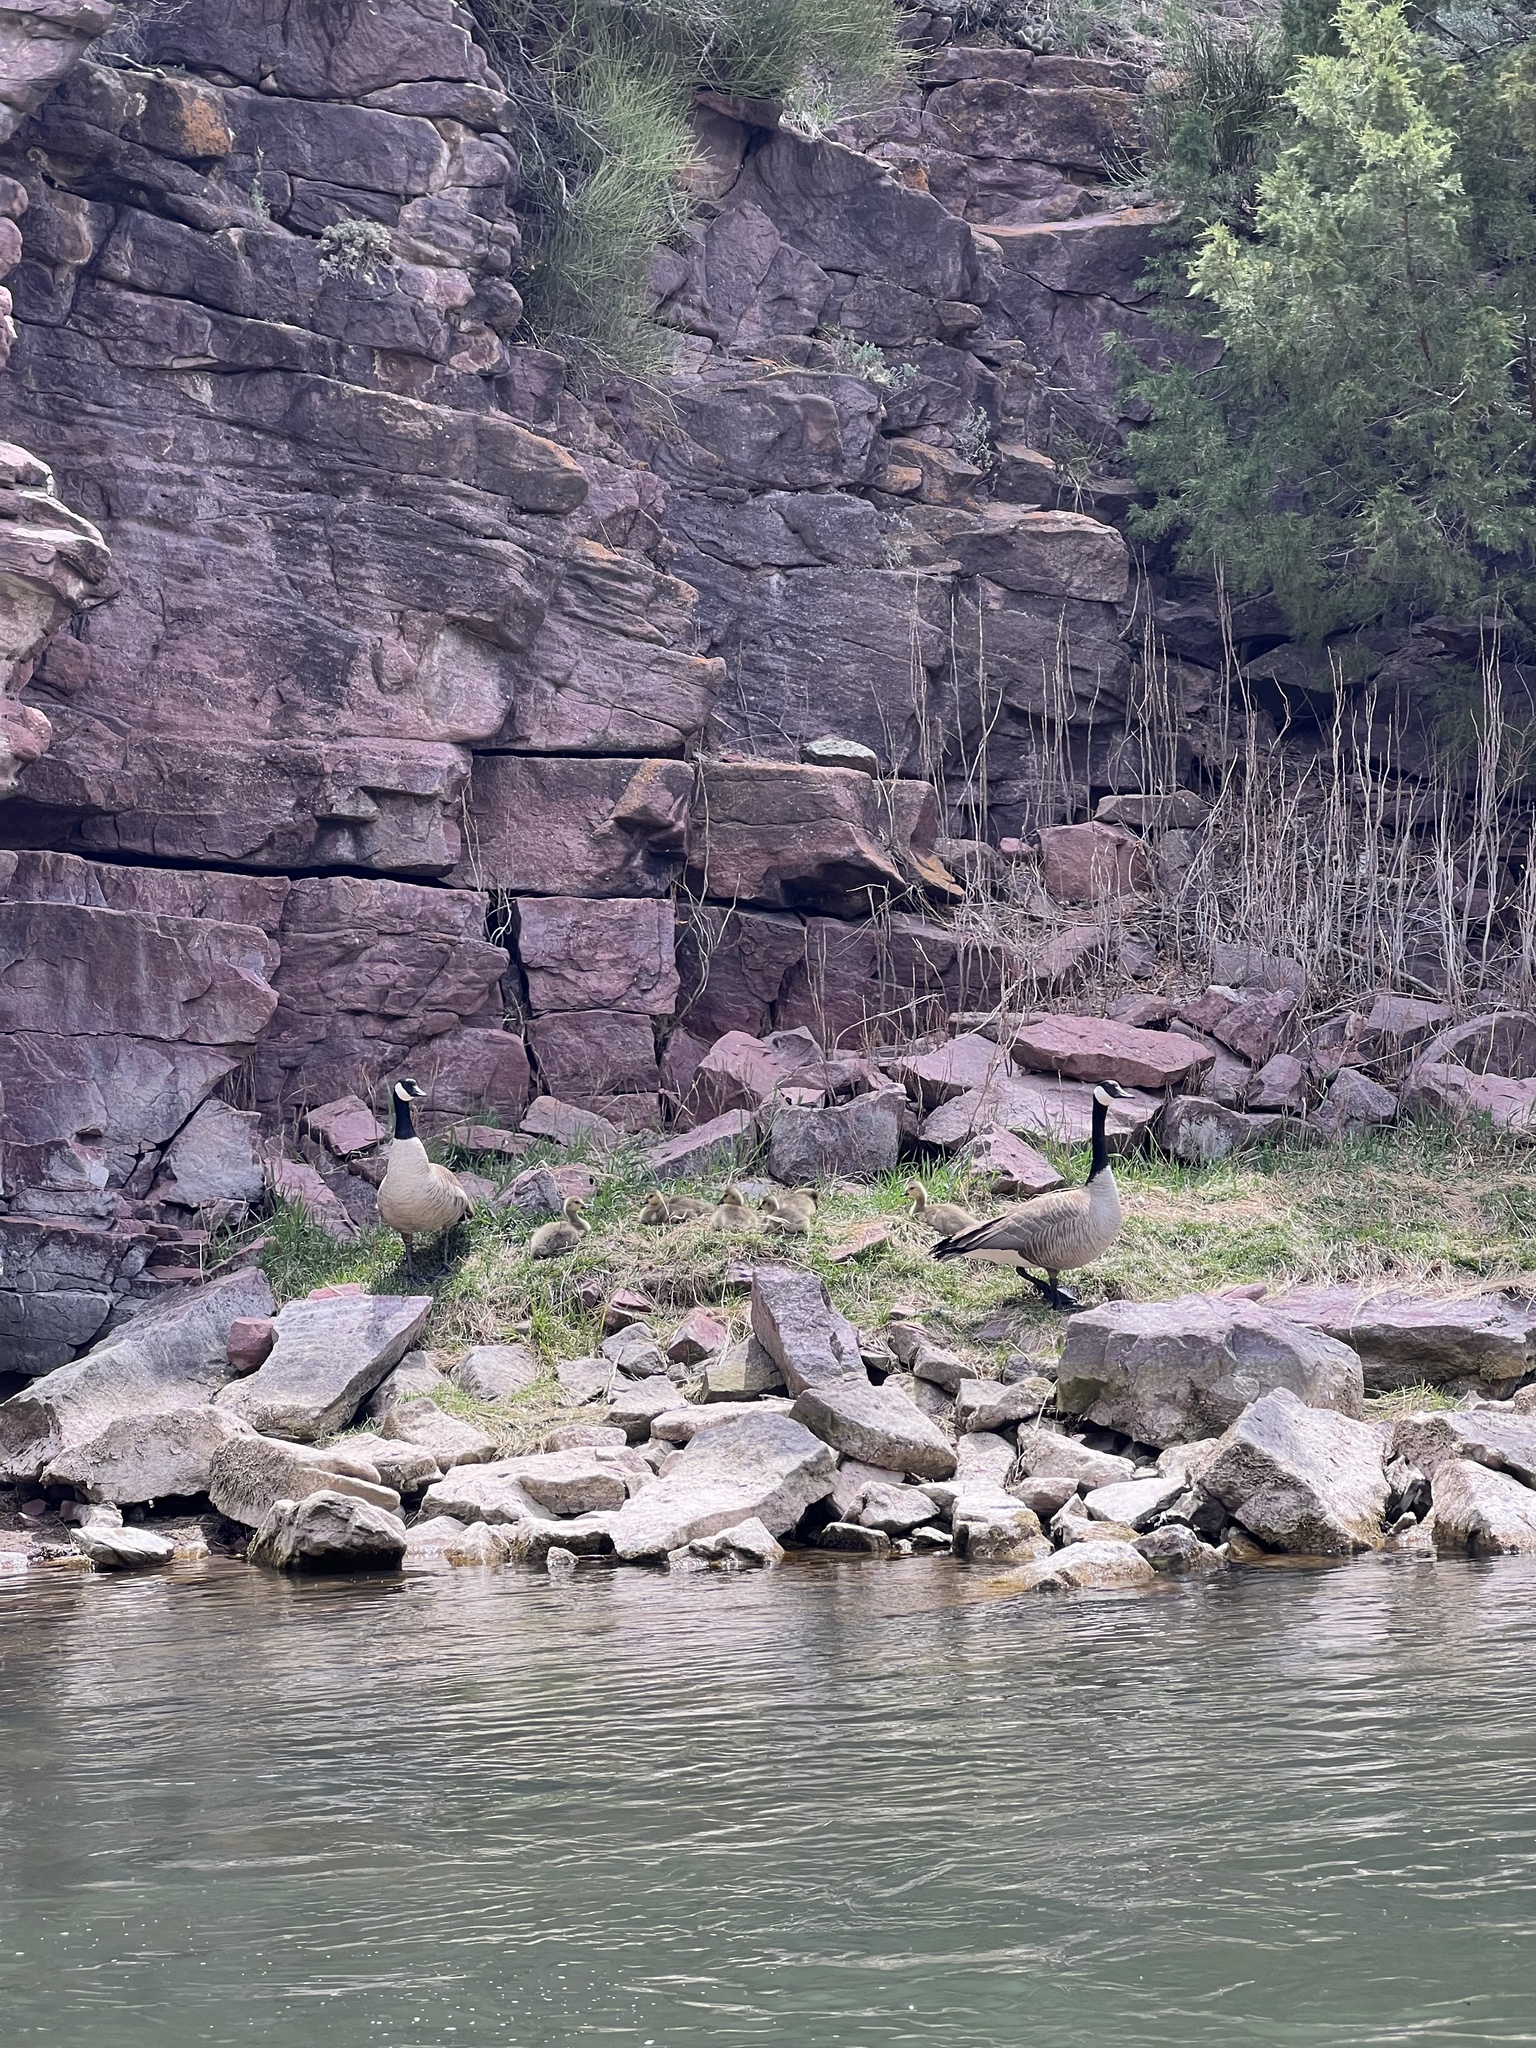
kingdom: Animalia
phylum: Chordata
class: Aves
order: Anseriformes
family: Anatidae
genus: Branta
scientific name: Branta canadensis
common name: Canada goose
